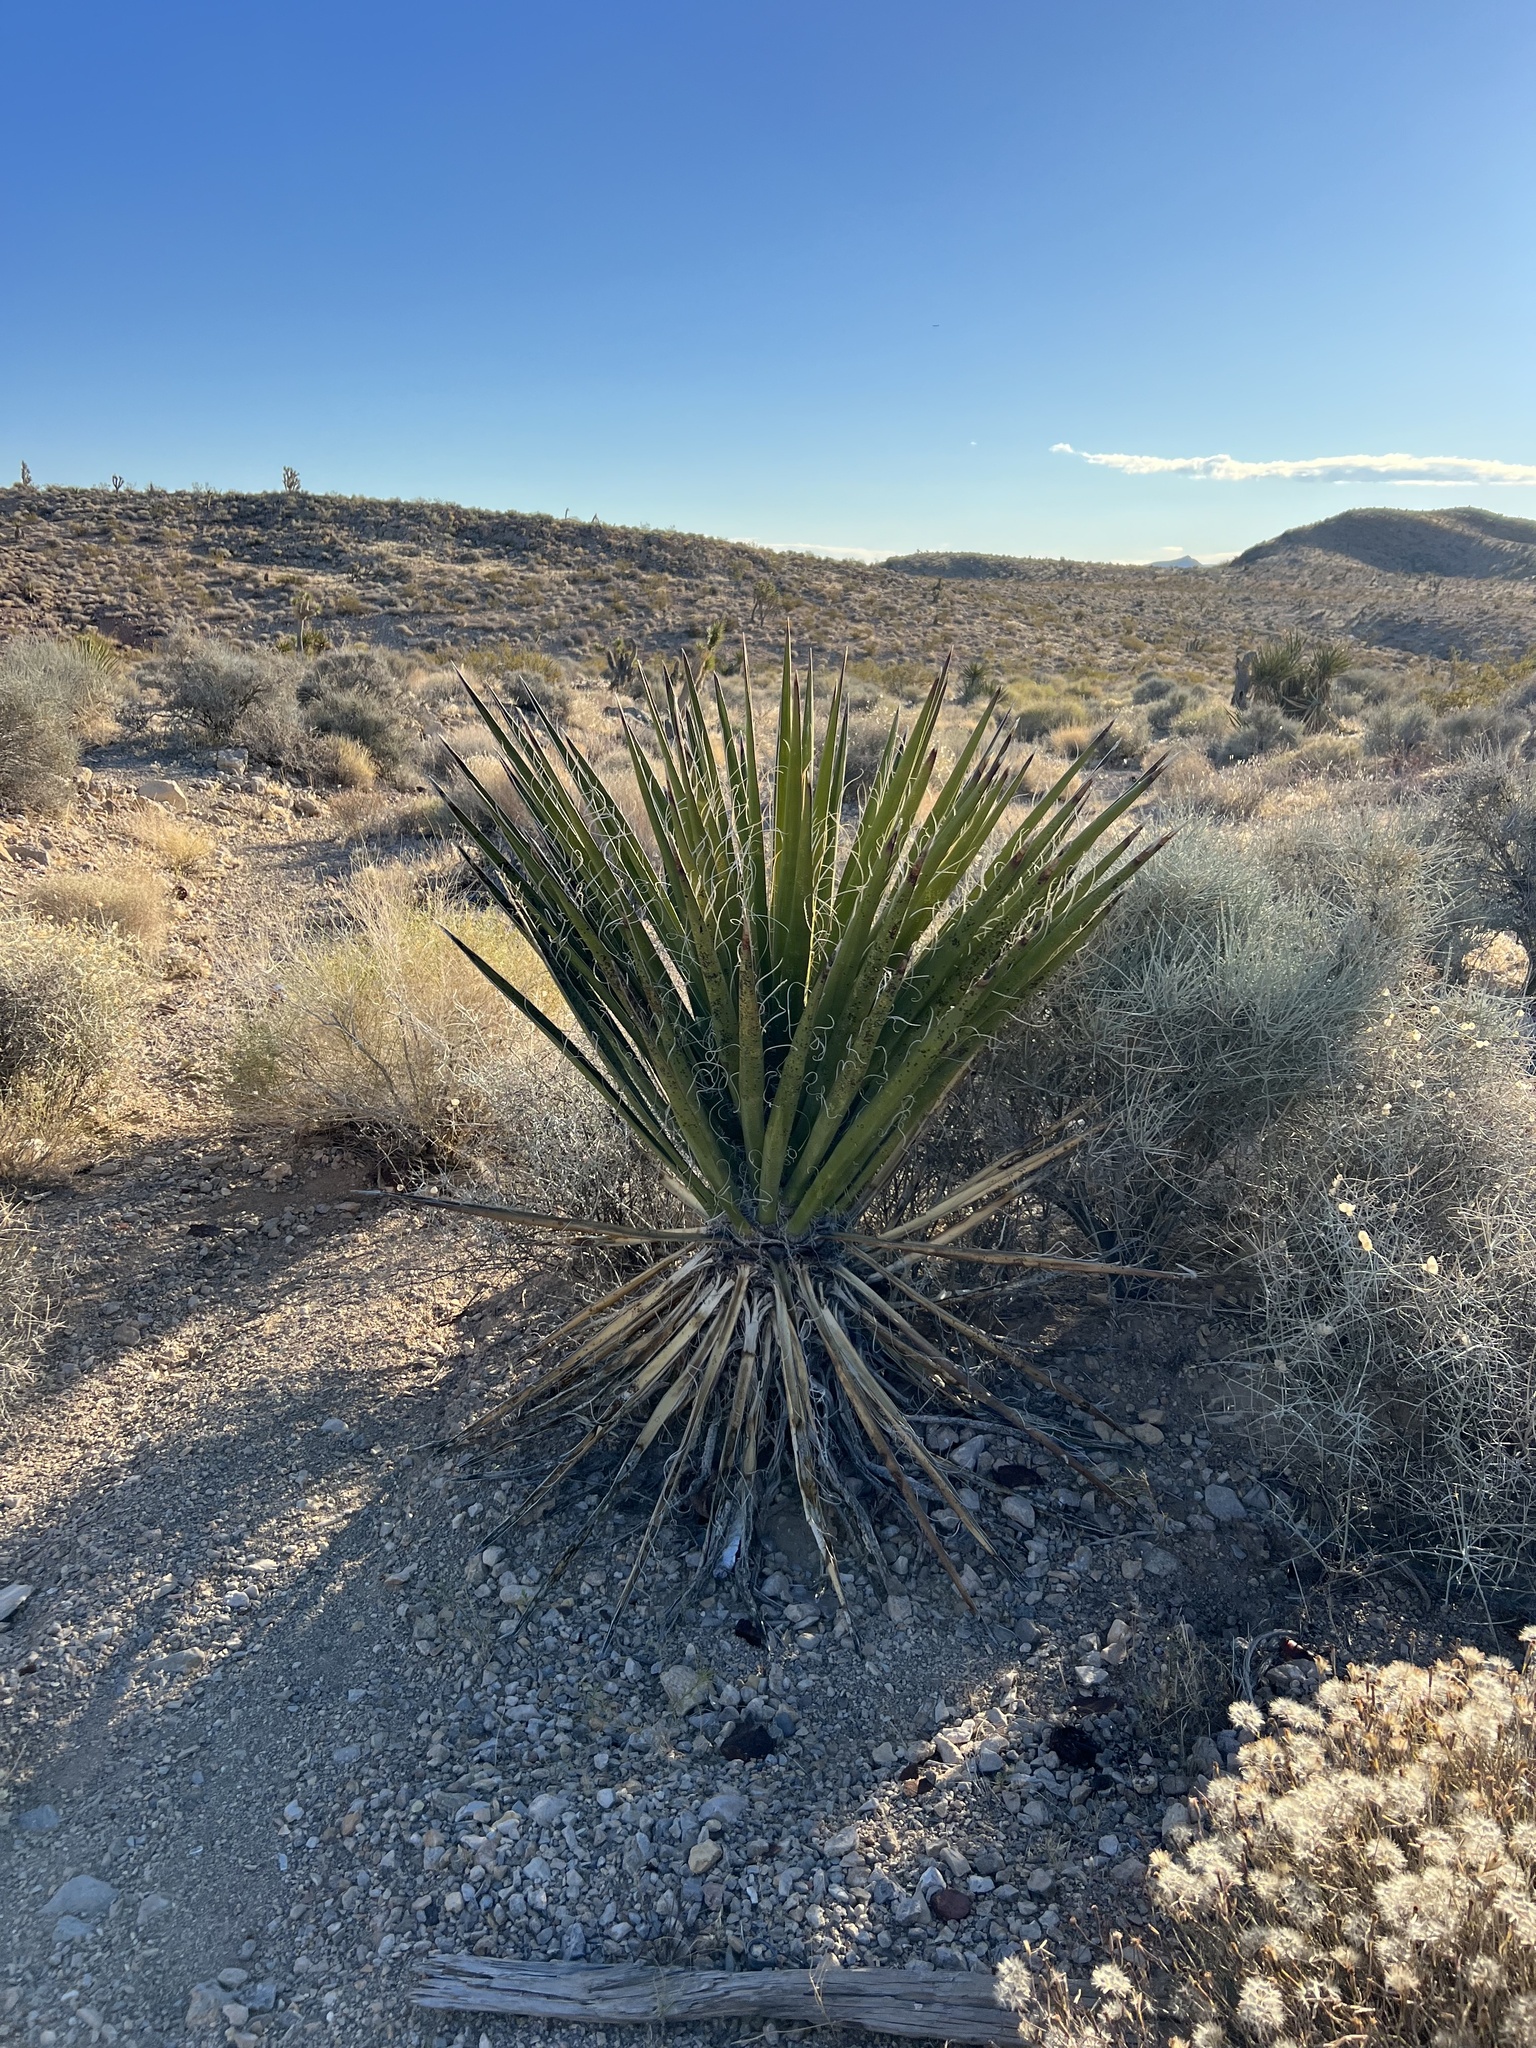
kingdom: Plantae
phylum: Tracheophyta
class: Liliopsida
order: Asparagales
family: Asparagaceae
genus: Yucca
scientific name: Yucca schidigera
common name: Mojave yucca
